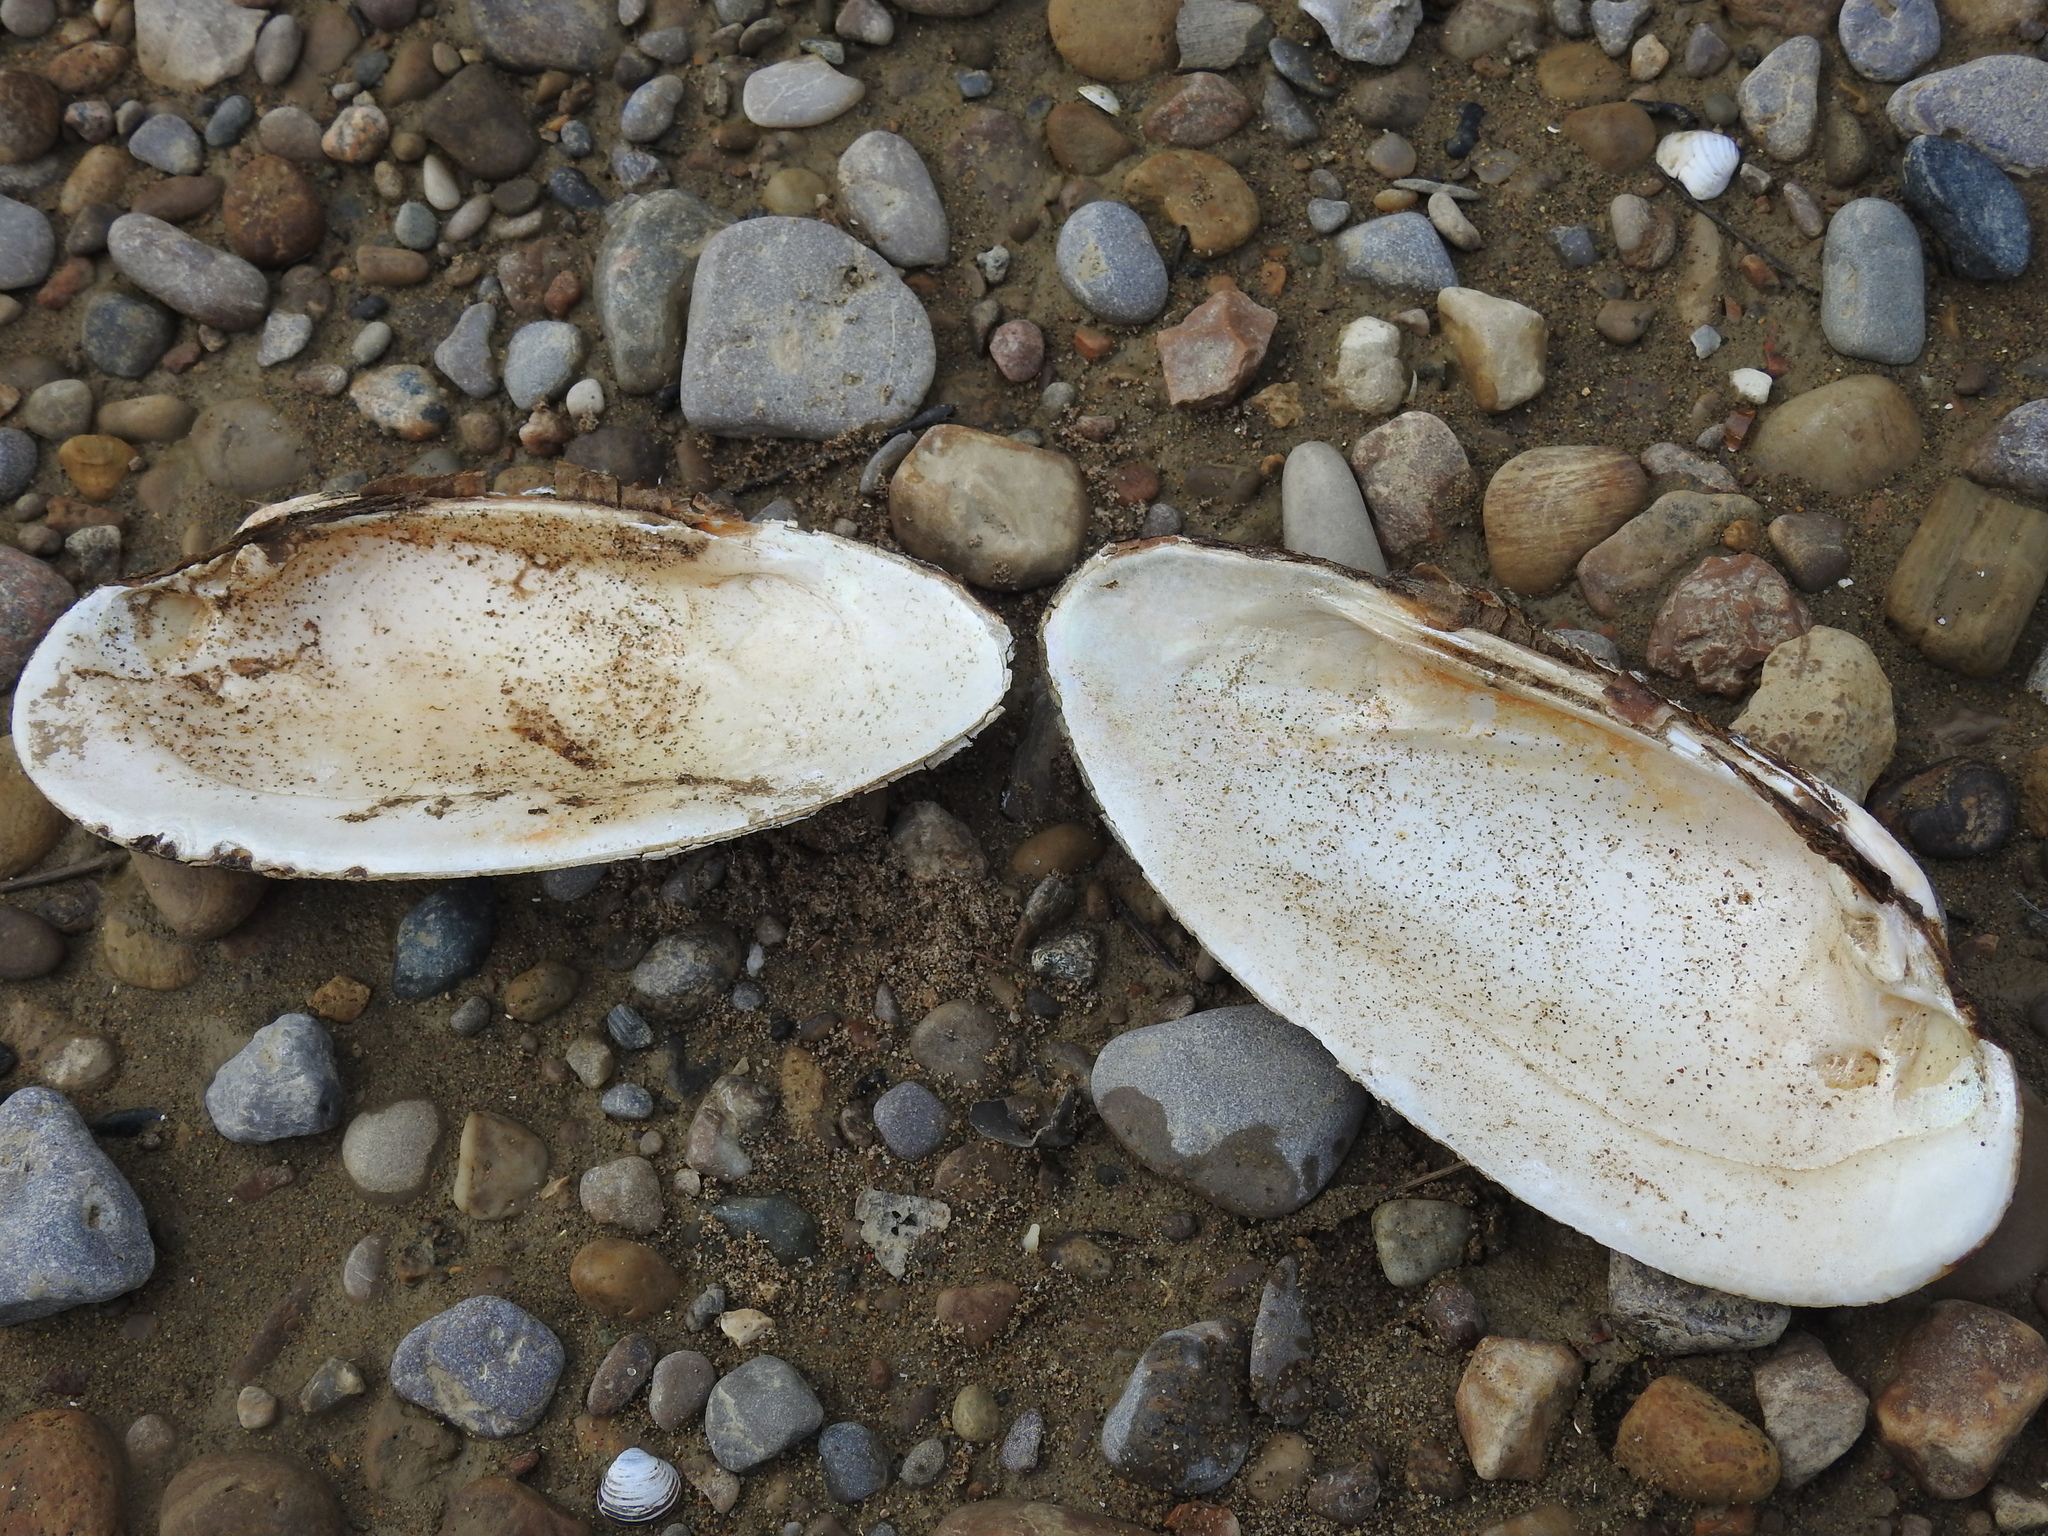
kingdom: Animalia
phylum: Mollusca
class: Bivalvia
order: Unionida
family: Unionidae
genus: Ligumia
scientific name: Ligumia recta
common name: Black sandshell
